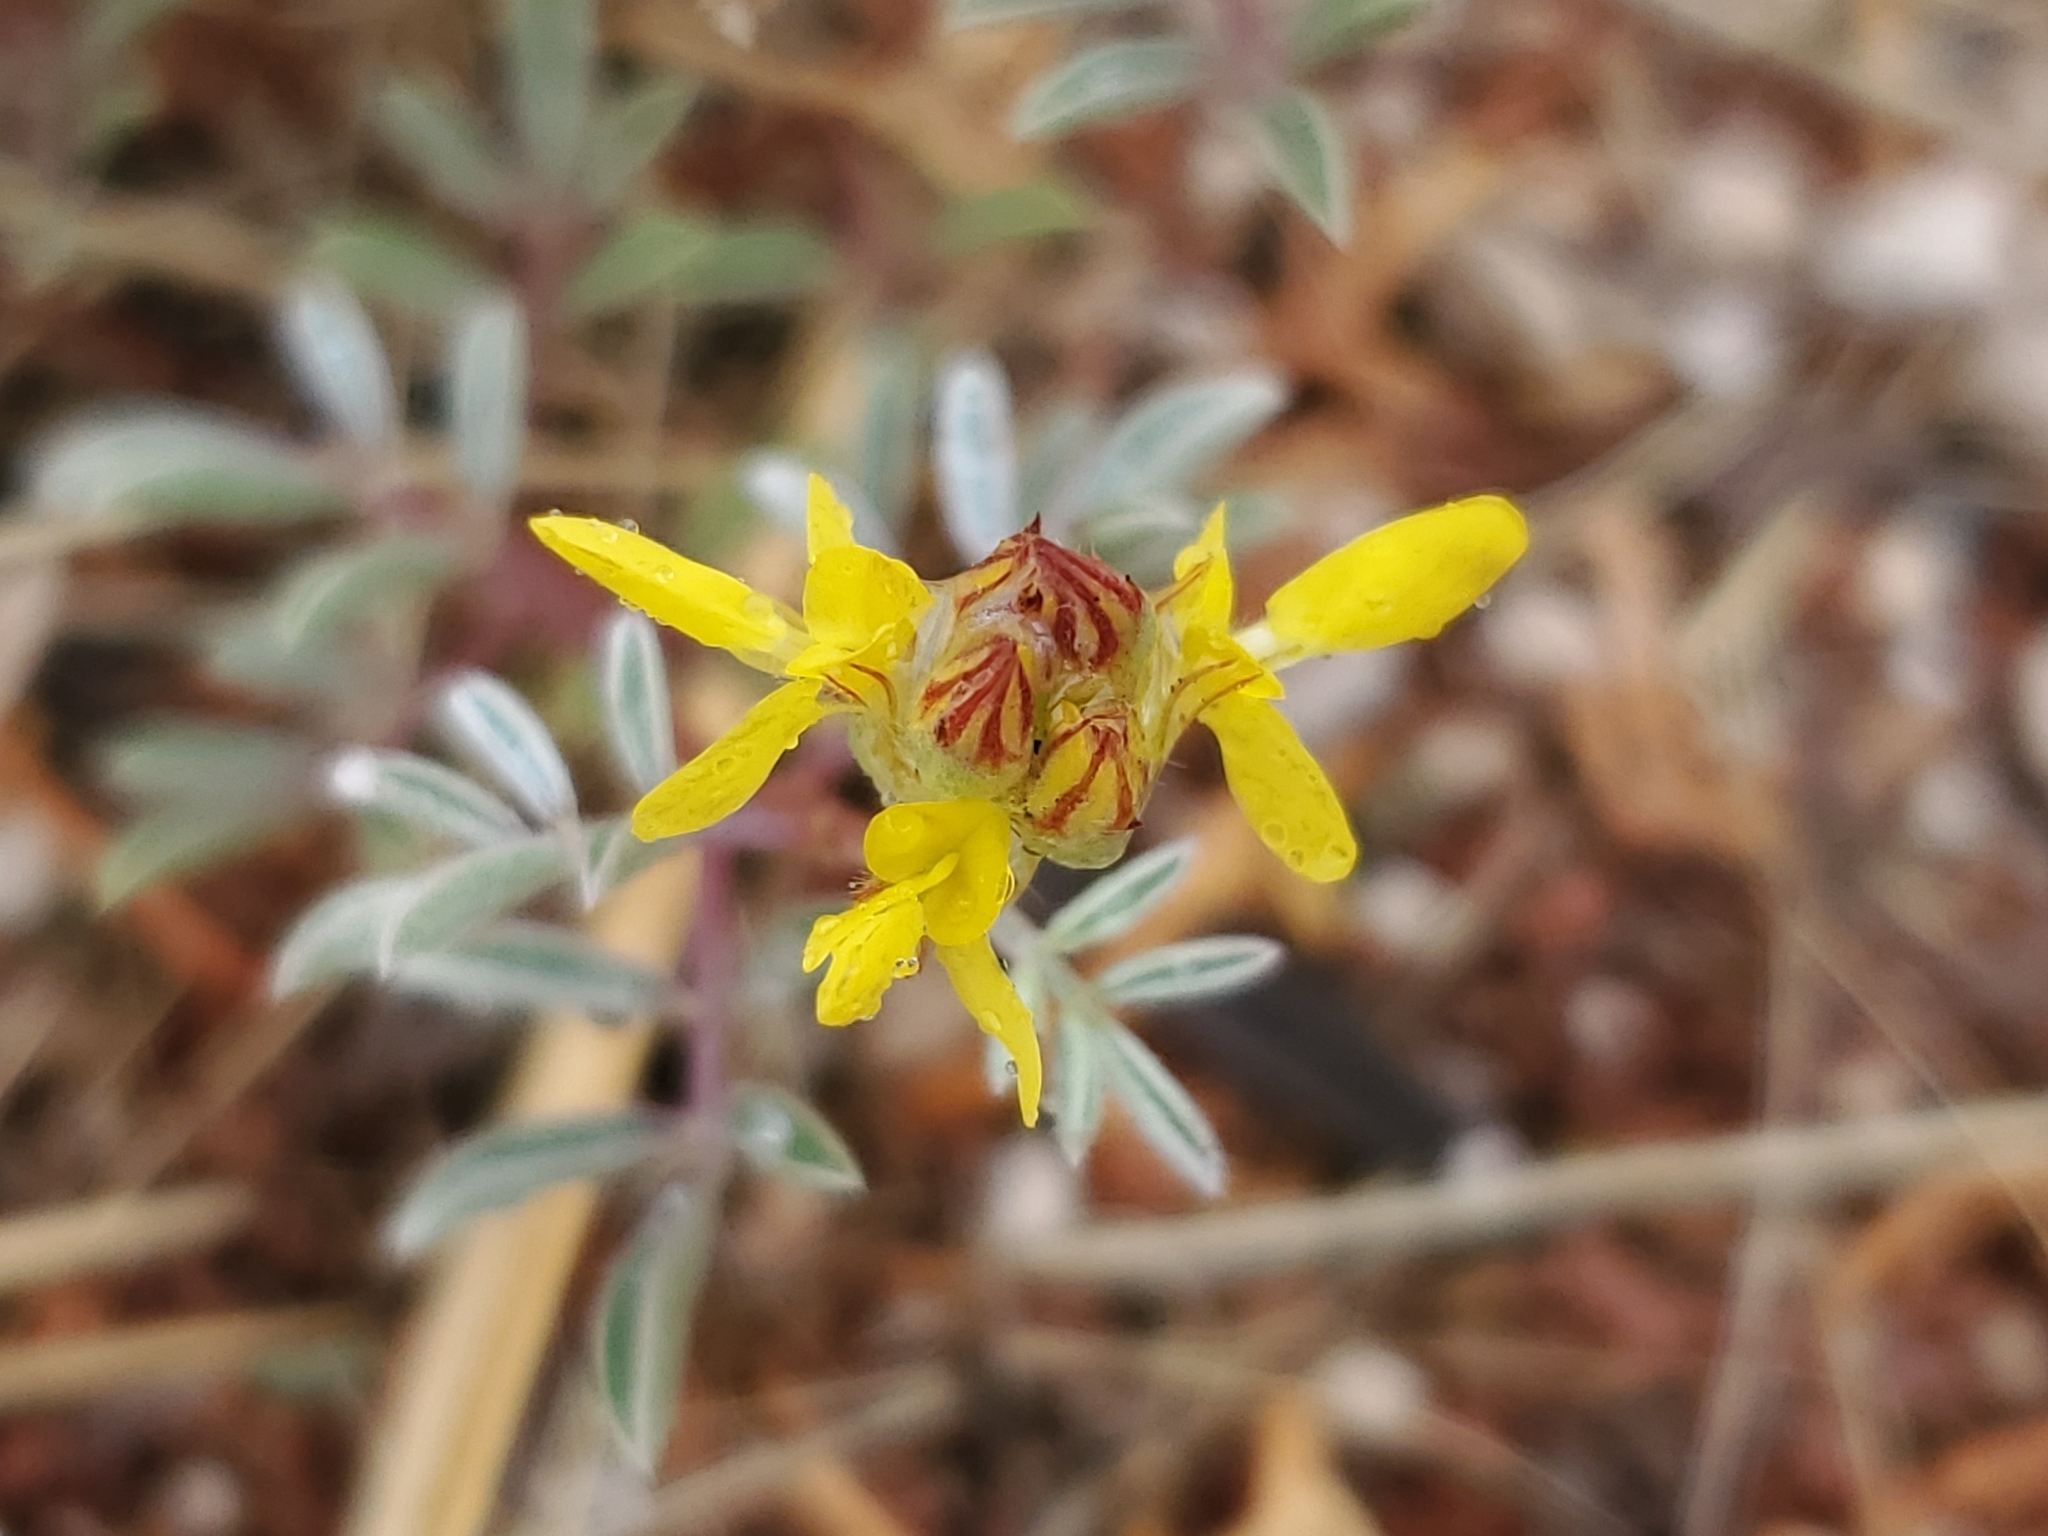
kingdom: Plantae
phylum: Tracheophyta
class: Magnoliopsida
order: Fabales
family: Fabaceae
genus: Dalea
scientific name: Dalea nana
